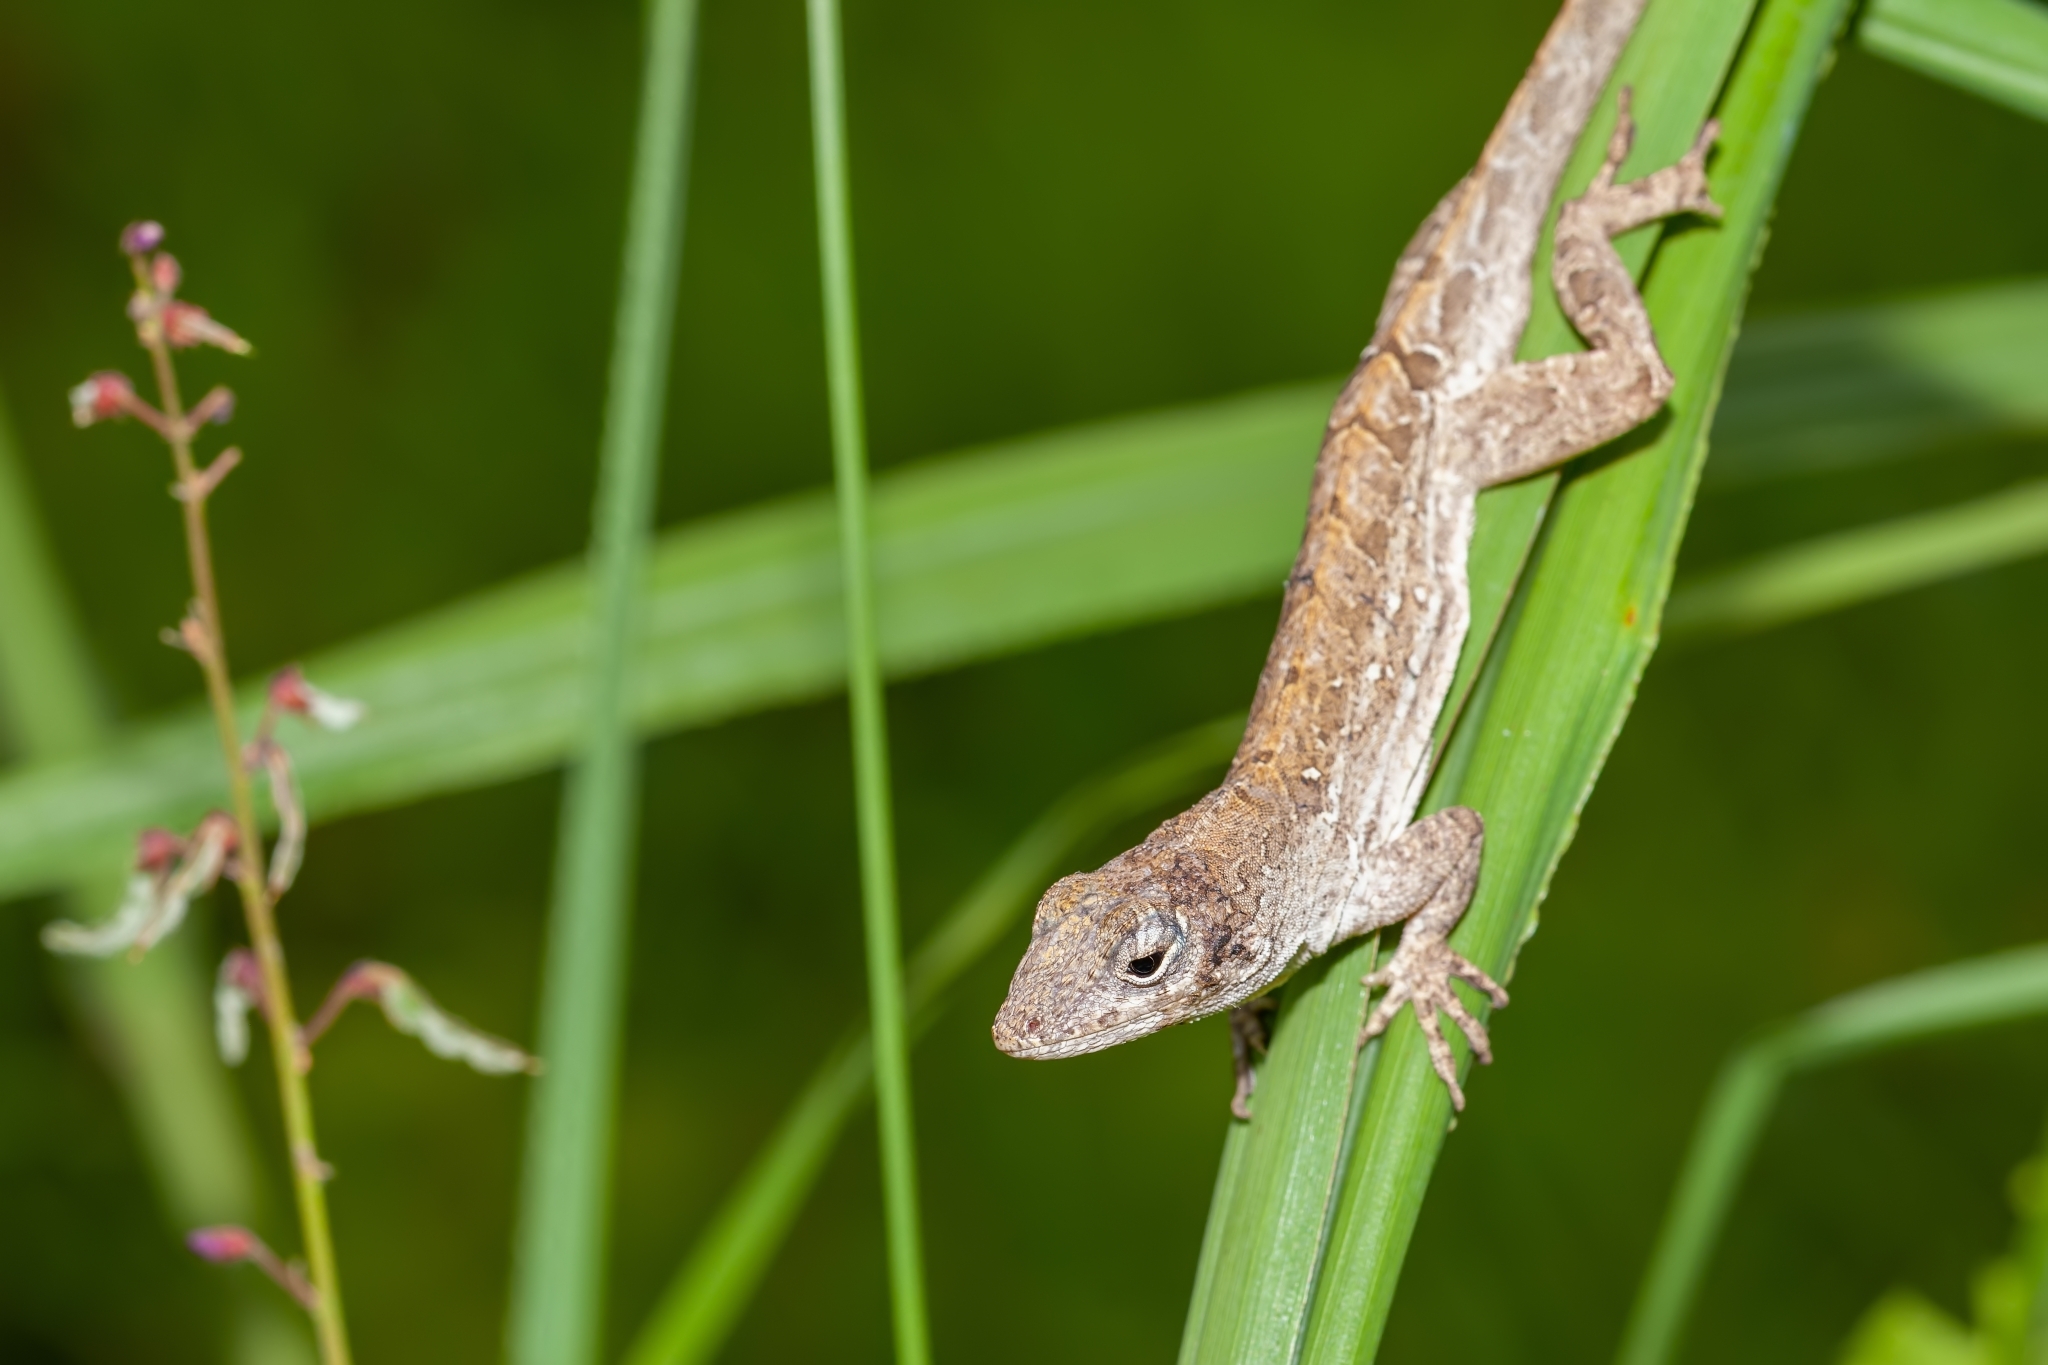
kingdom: Animalia
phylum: Chordata
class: Squamata
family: Dactyloidae
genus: Anolis
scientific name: Anolis sagrei
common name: Brown anole
